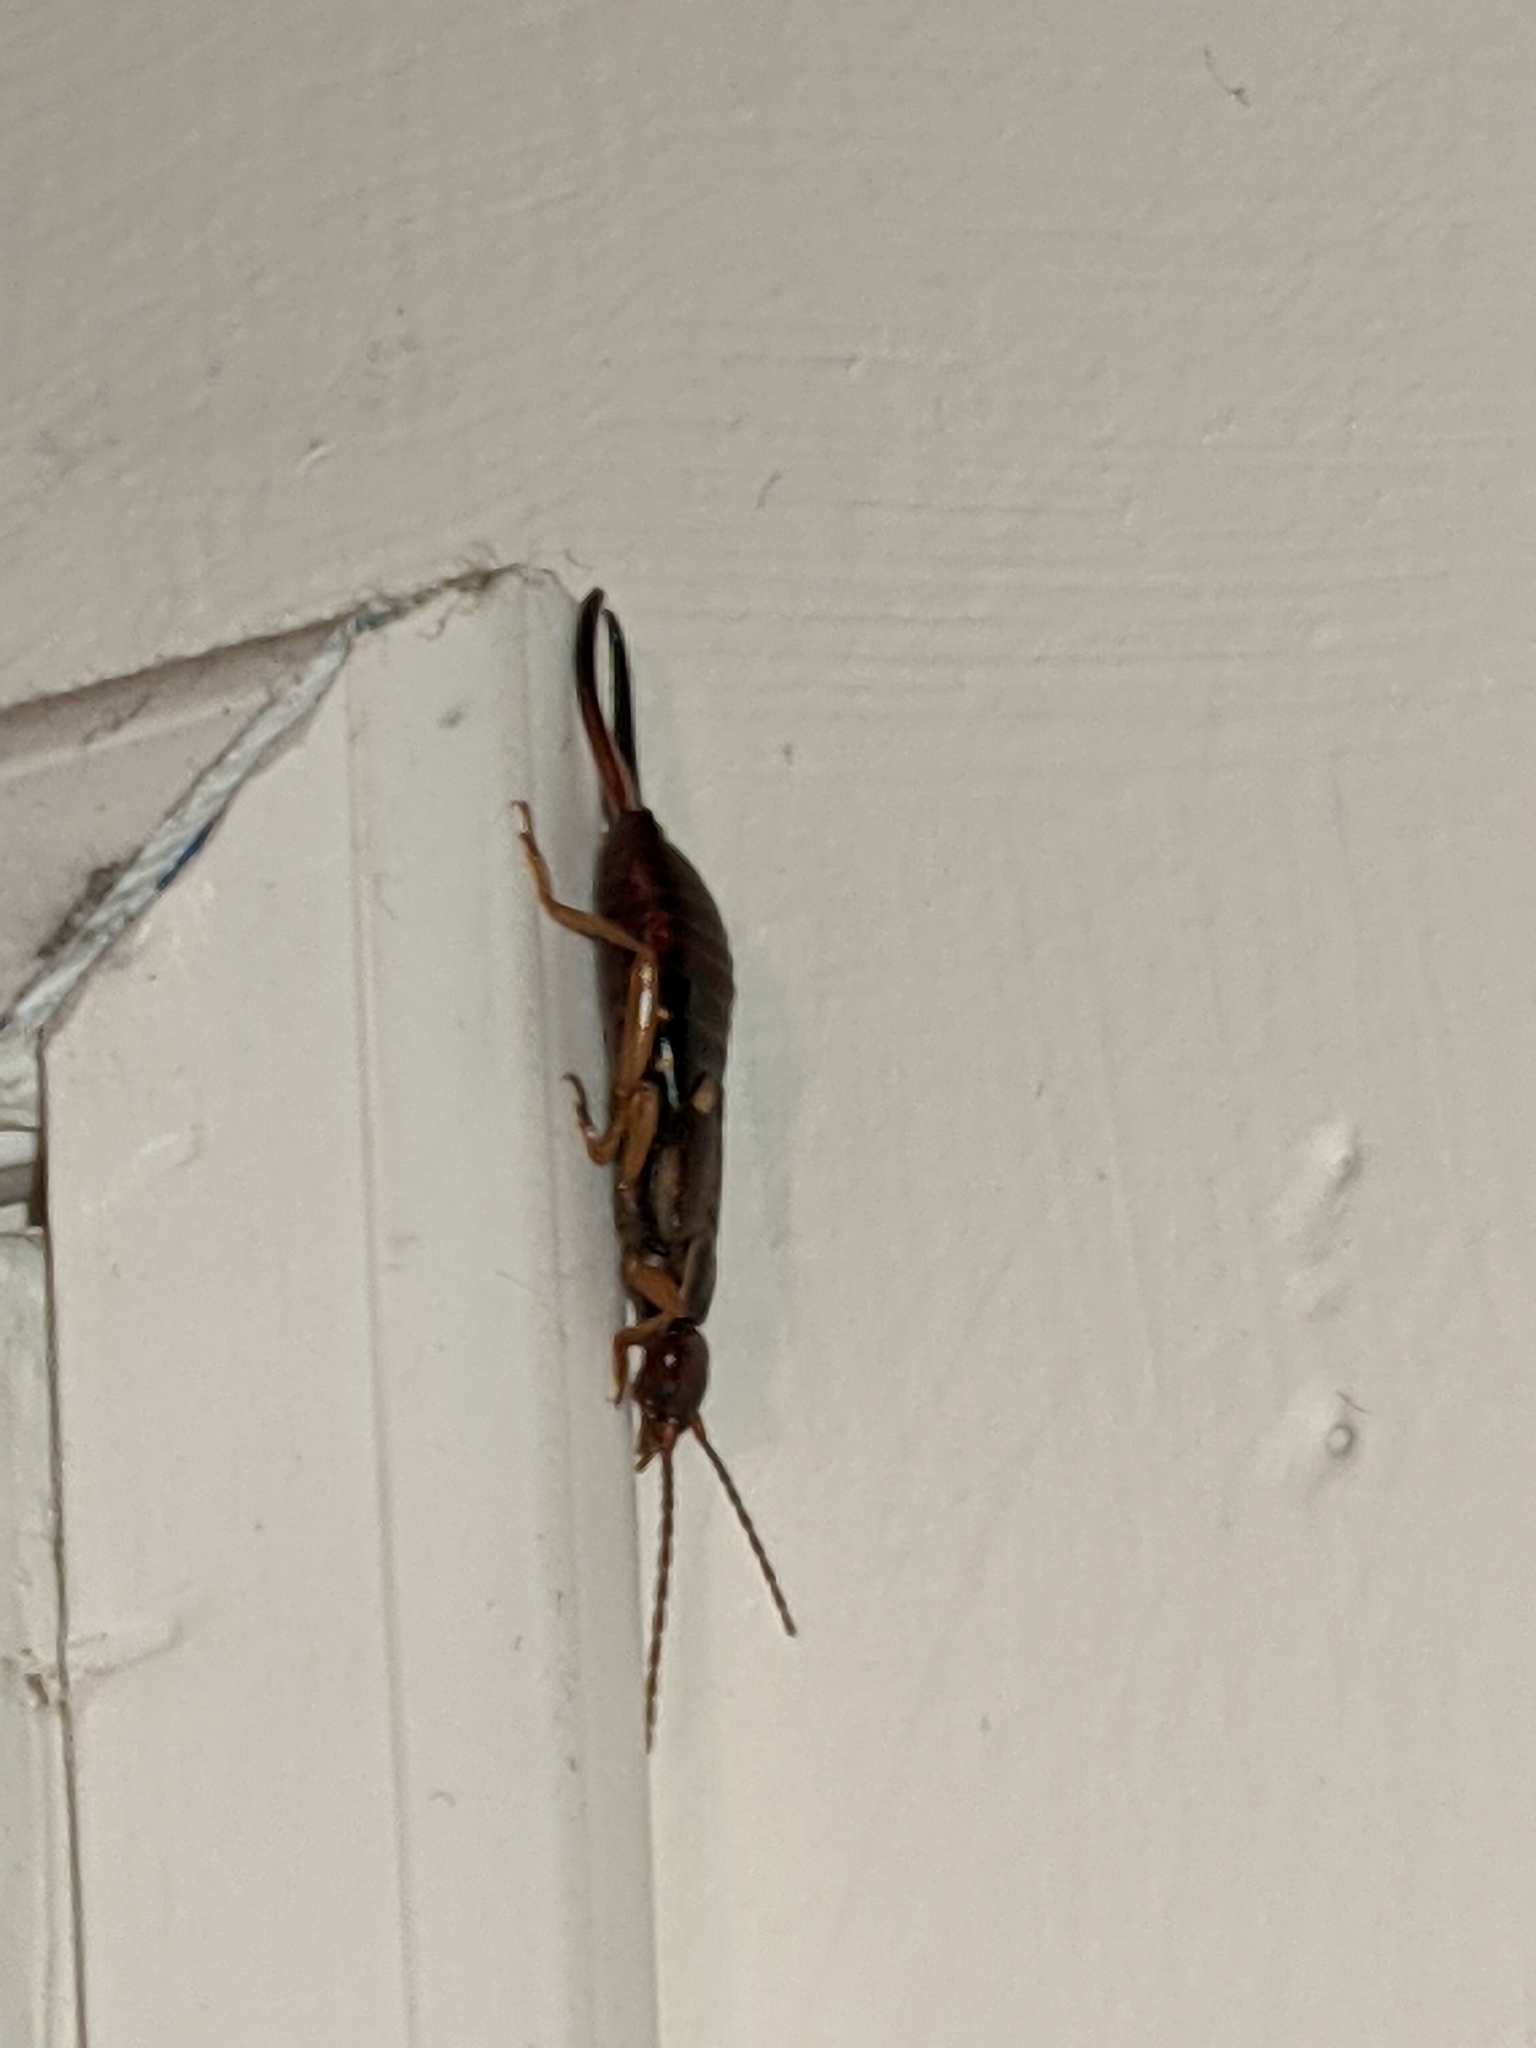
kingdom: Animalia
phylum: Arthropoda
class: Insecta
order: Dermaptera
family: Forficulidae
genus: Forficula
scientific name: Forficula
